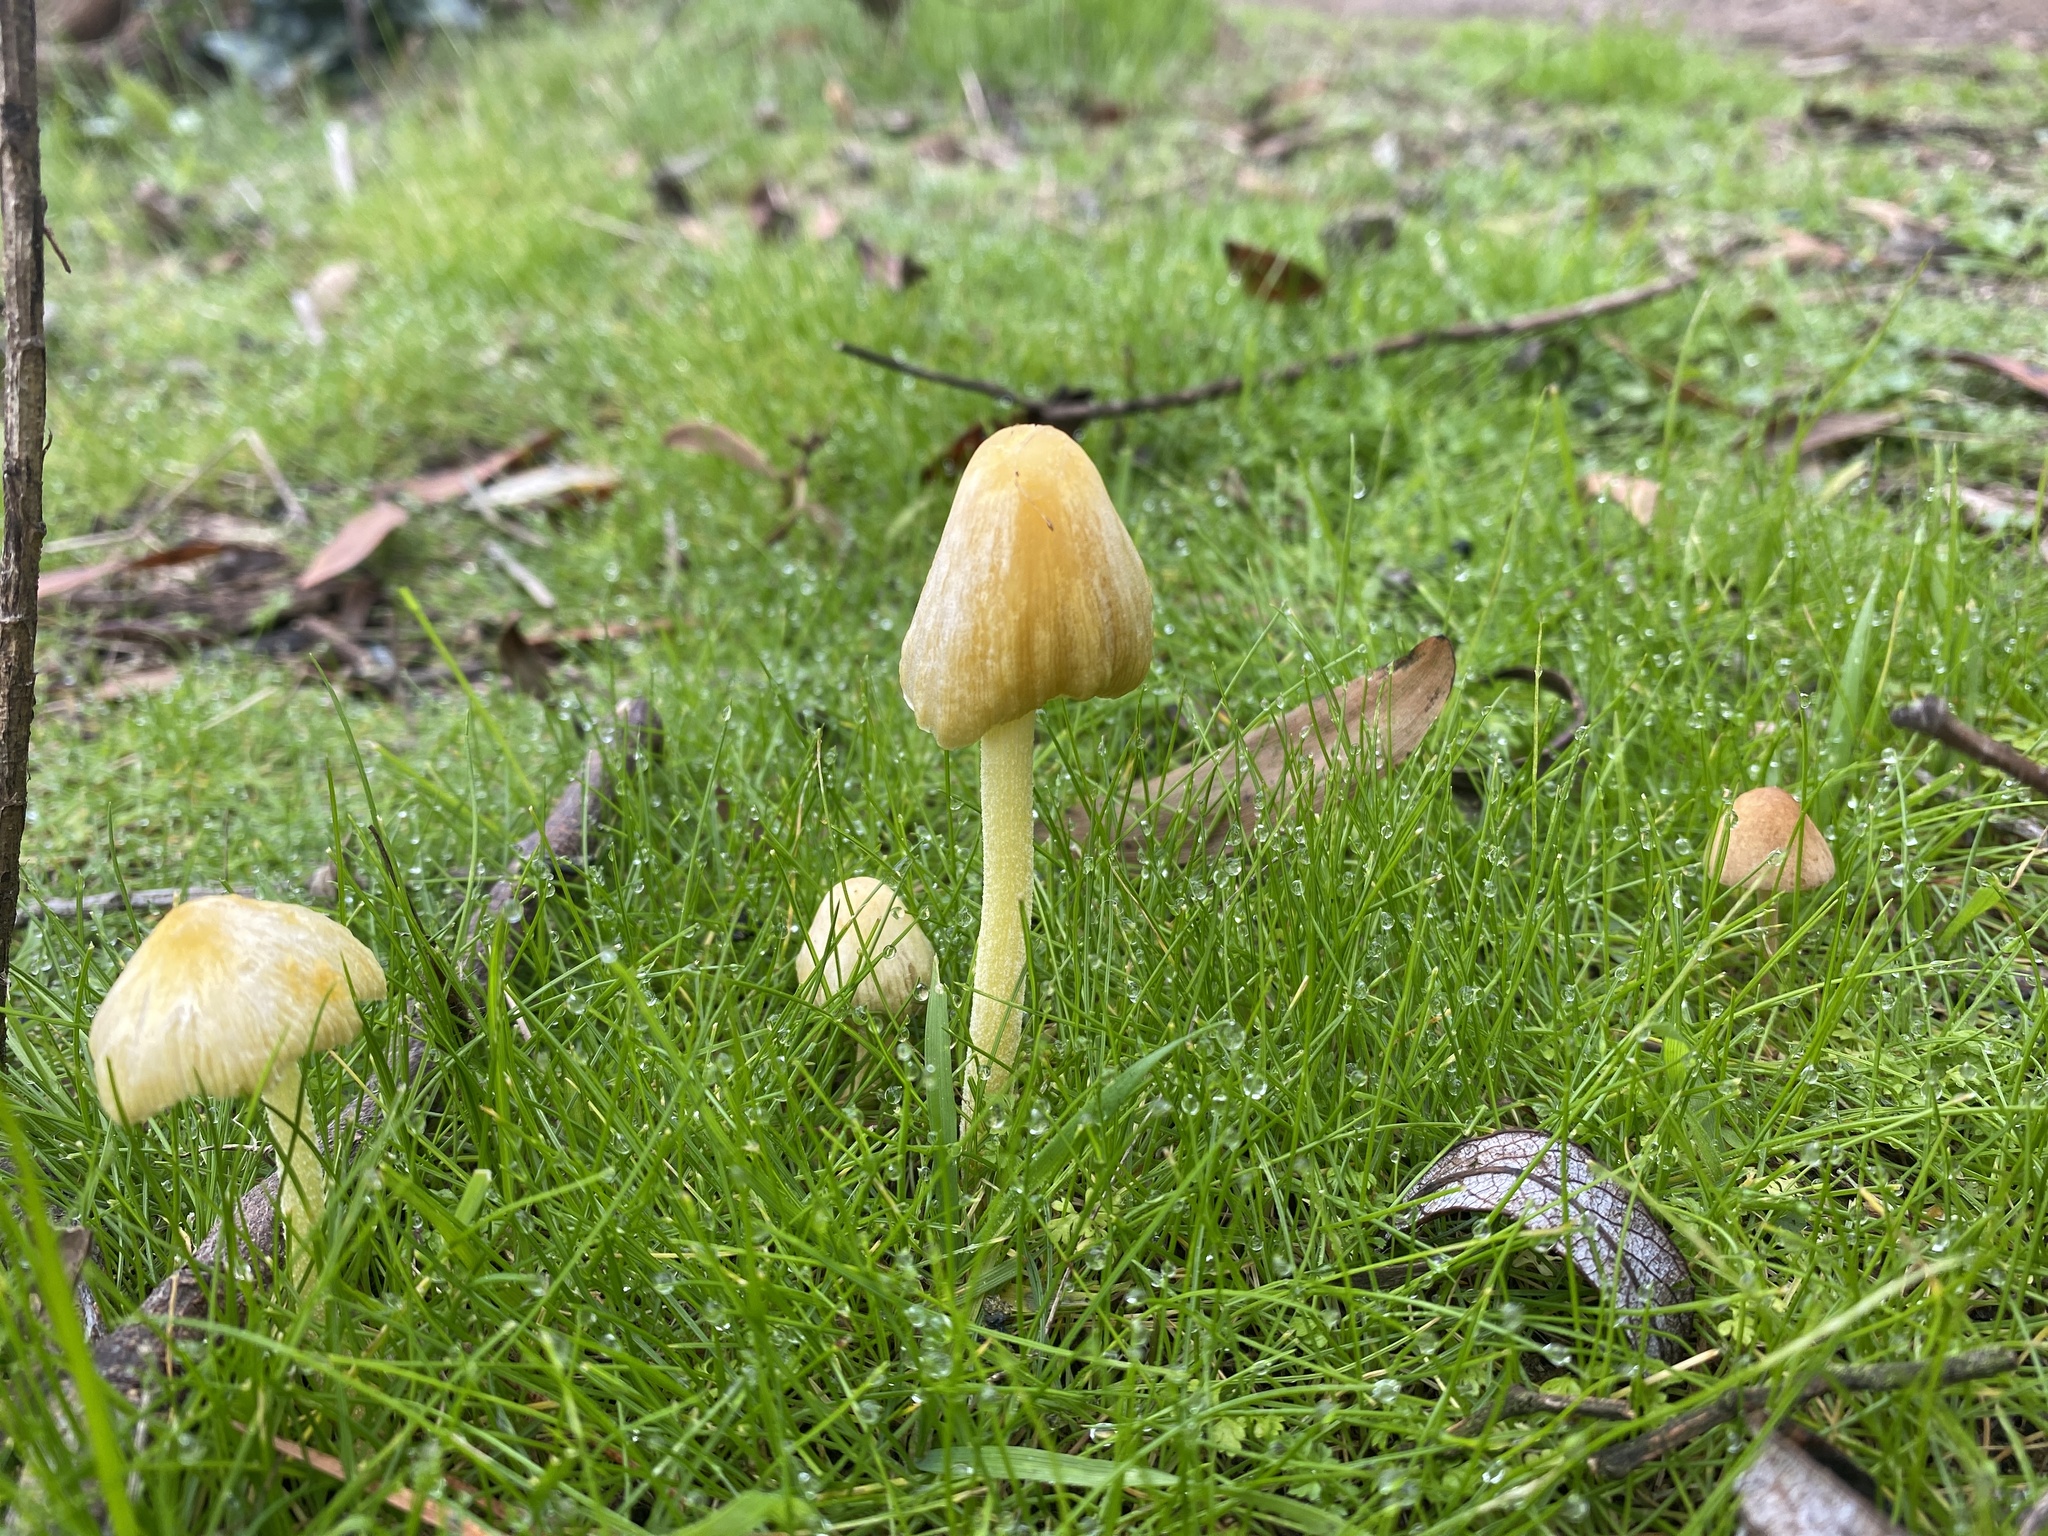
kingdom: Fungi
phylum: Basidiomycota
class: Agaricomycetes
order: Agaricales
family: Bolbitiaceae
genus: Bolbitius
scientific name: Bolbitius titubans
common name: Yellow fieldcap
